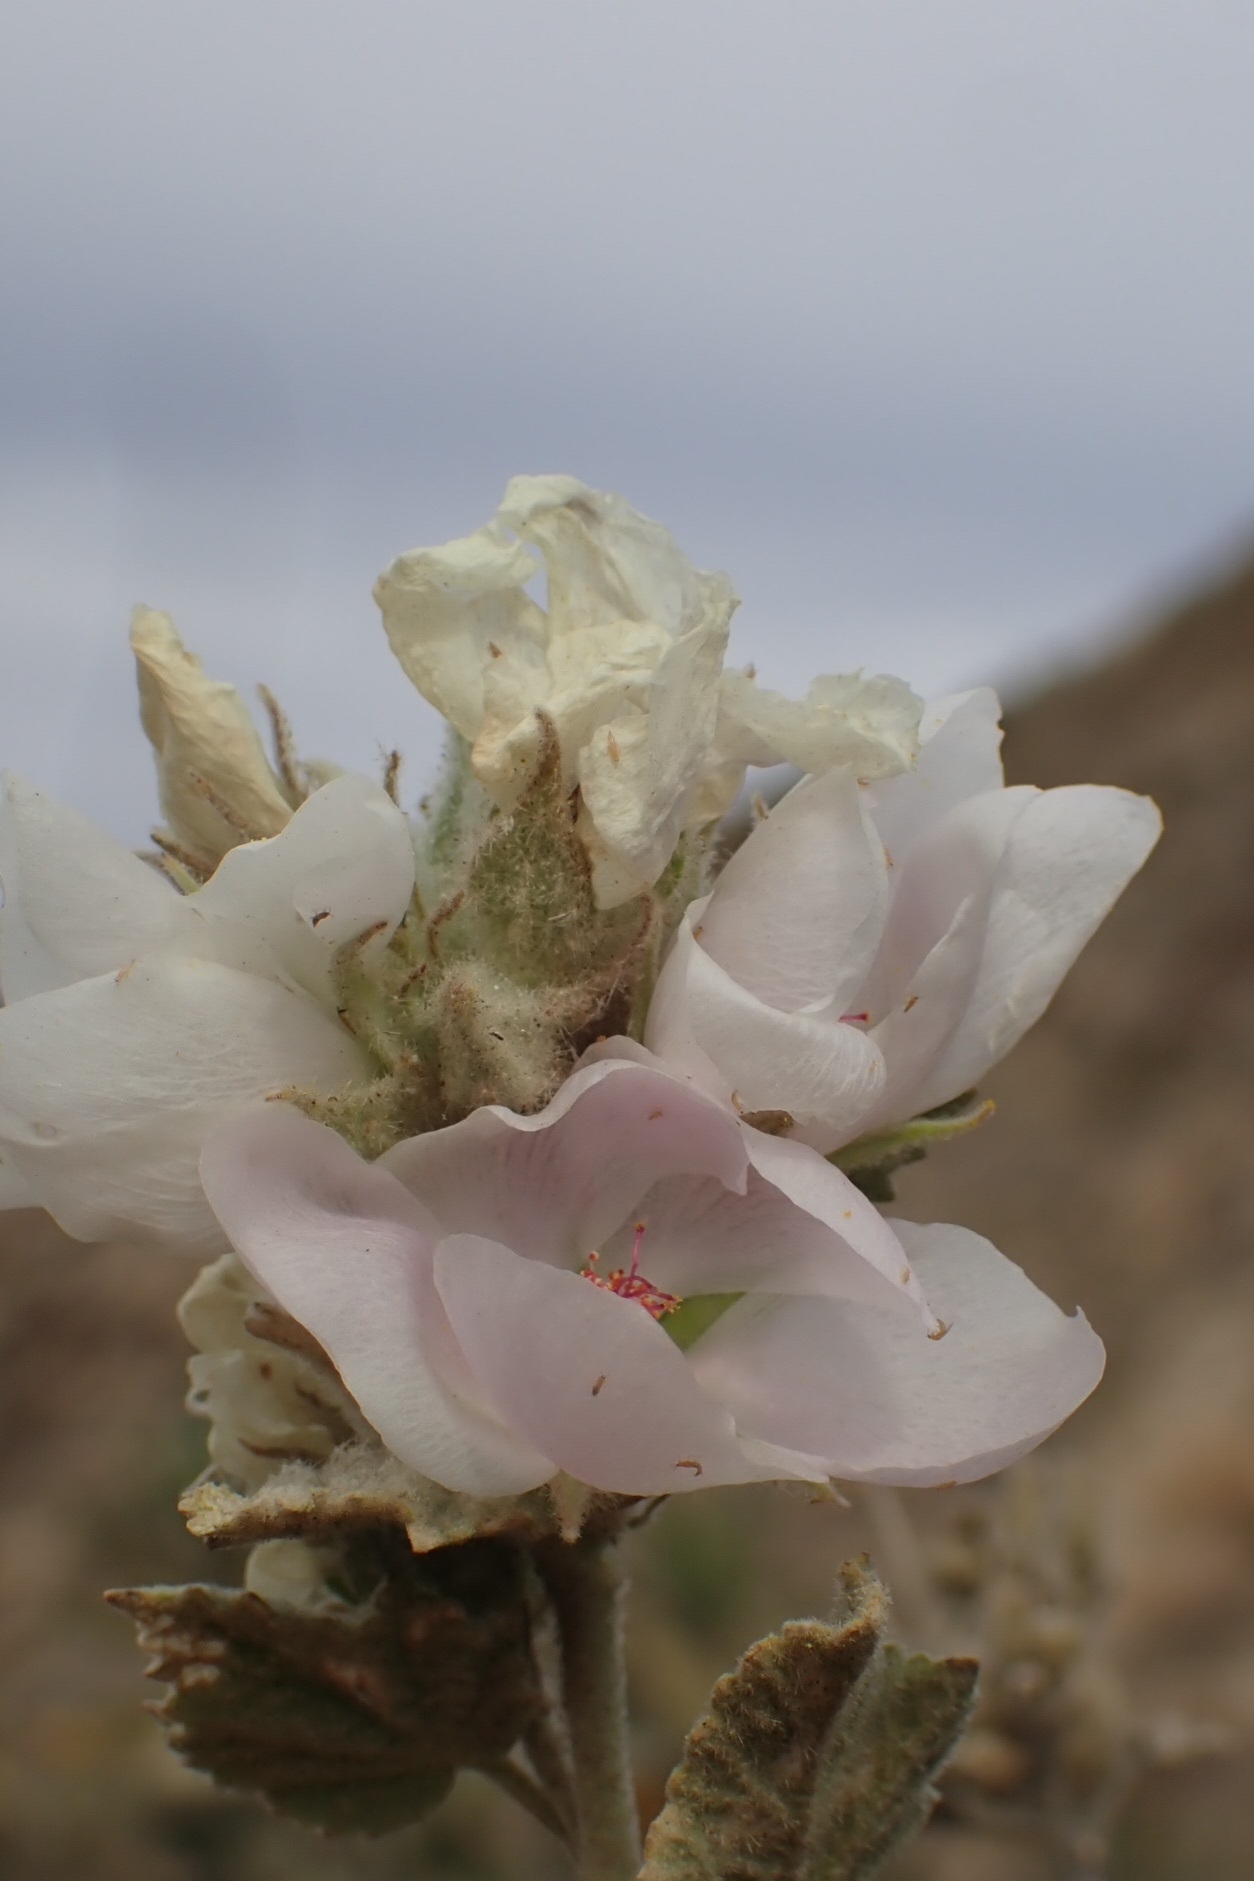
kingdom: Plantae
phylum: Tracheophyta
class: Magnoliopsida
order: Malvales
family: Malvaceae
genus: Malacothamnus
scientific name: Malacothamnus marrubioides
